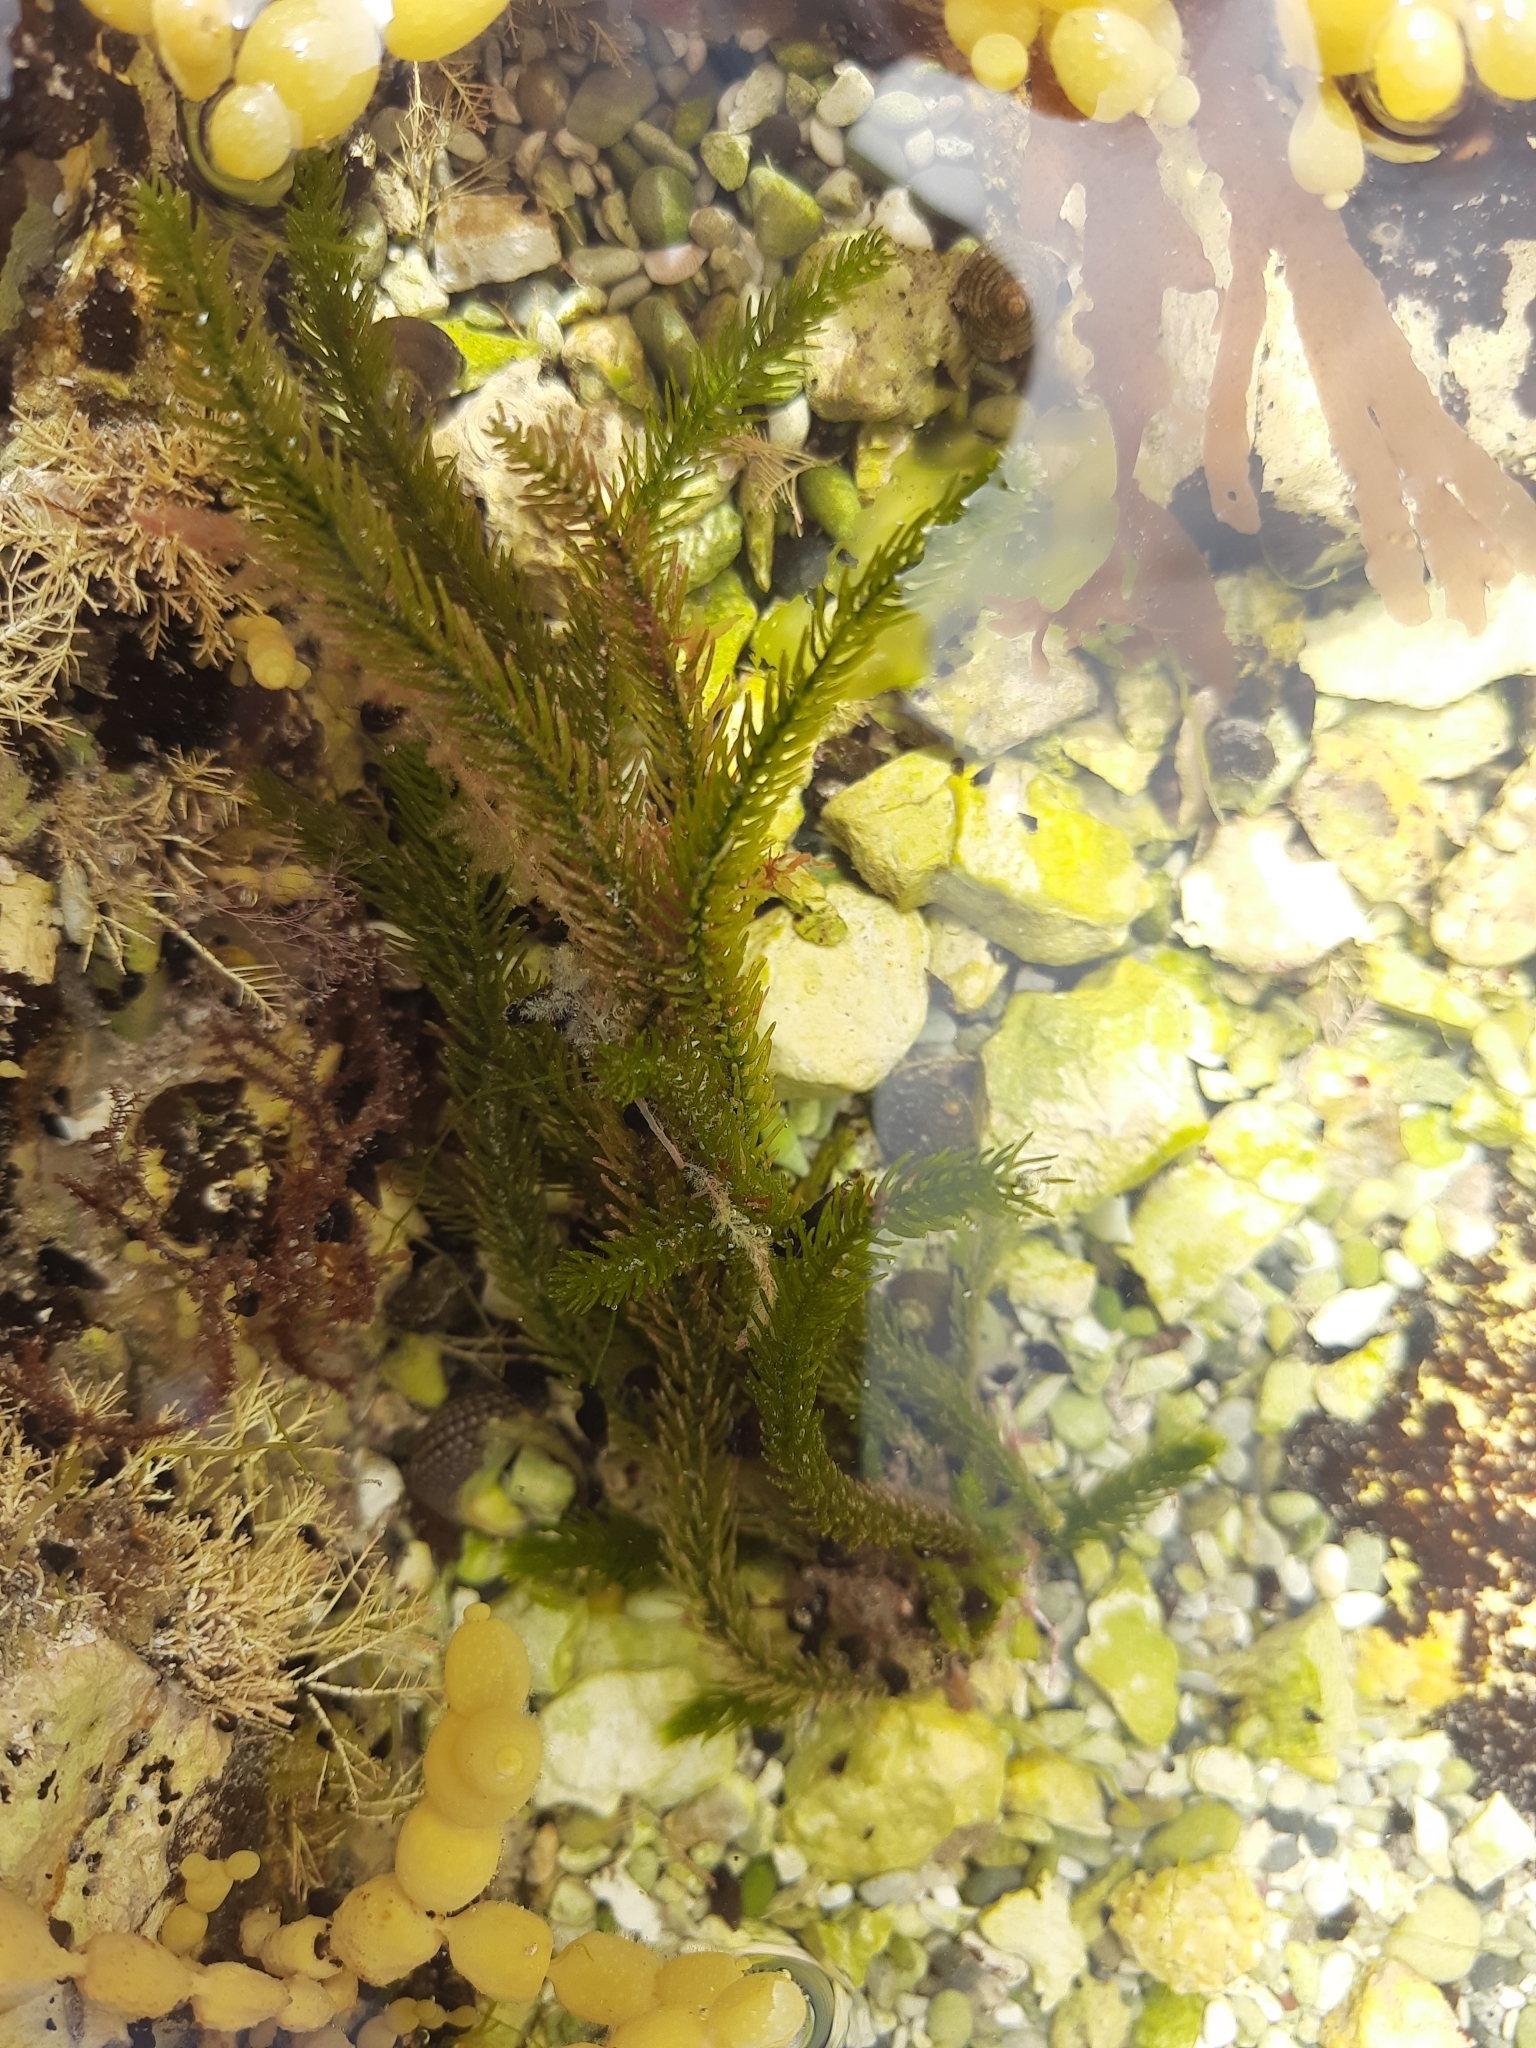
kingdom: Plantae
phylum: Chlorophyta
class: Ulvophyceae
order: Bryopsidales
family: Caulerpaceae
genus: Caulerpa
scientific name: Caulerpa brownii
